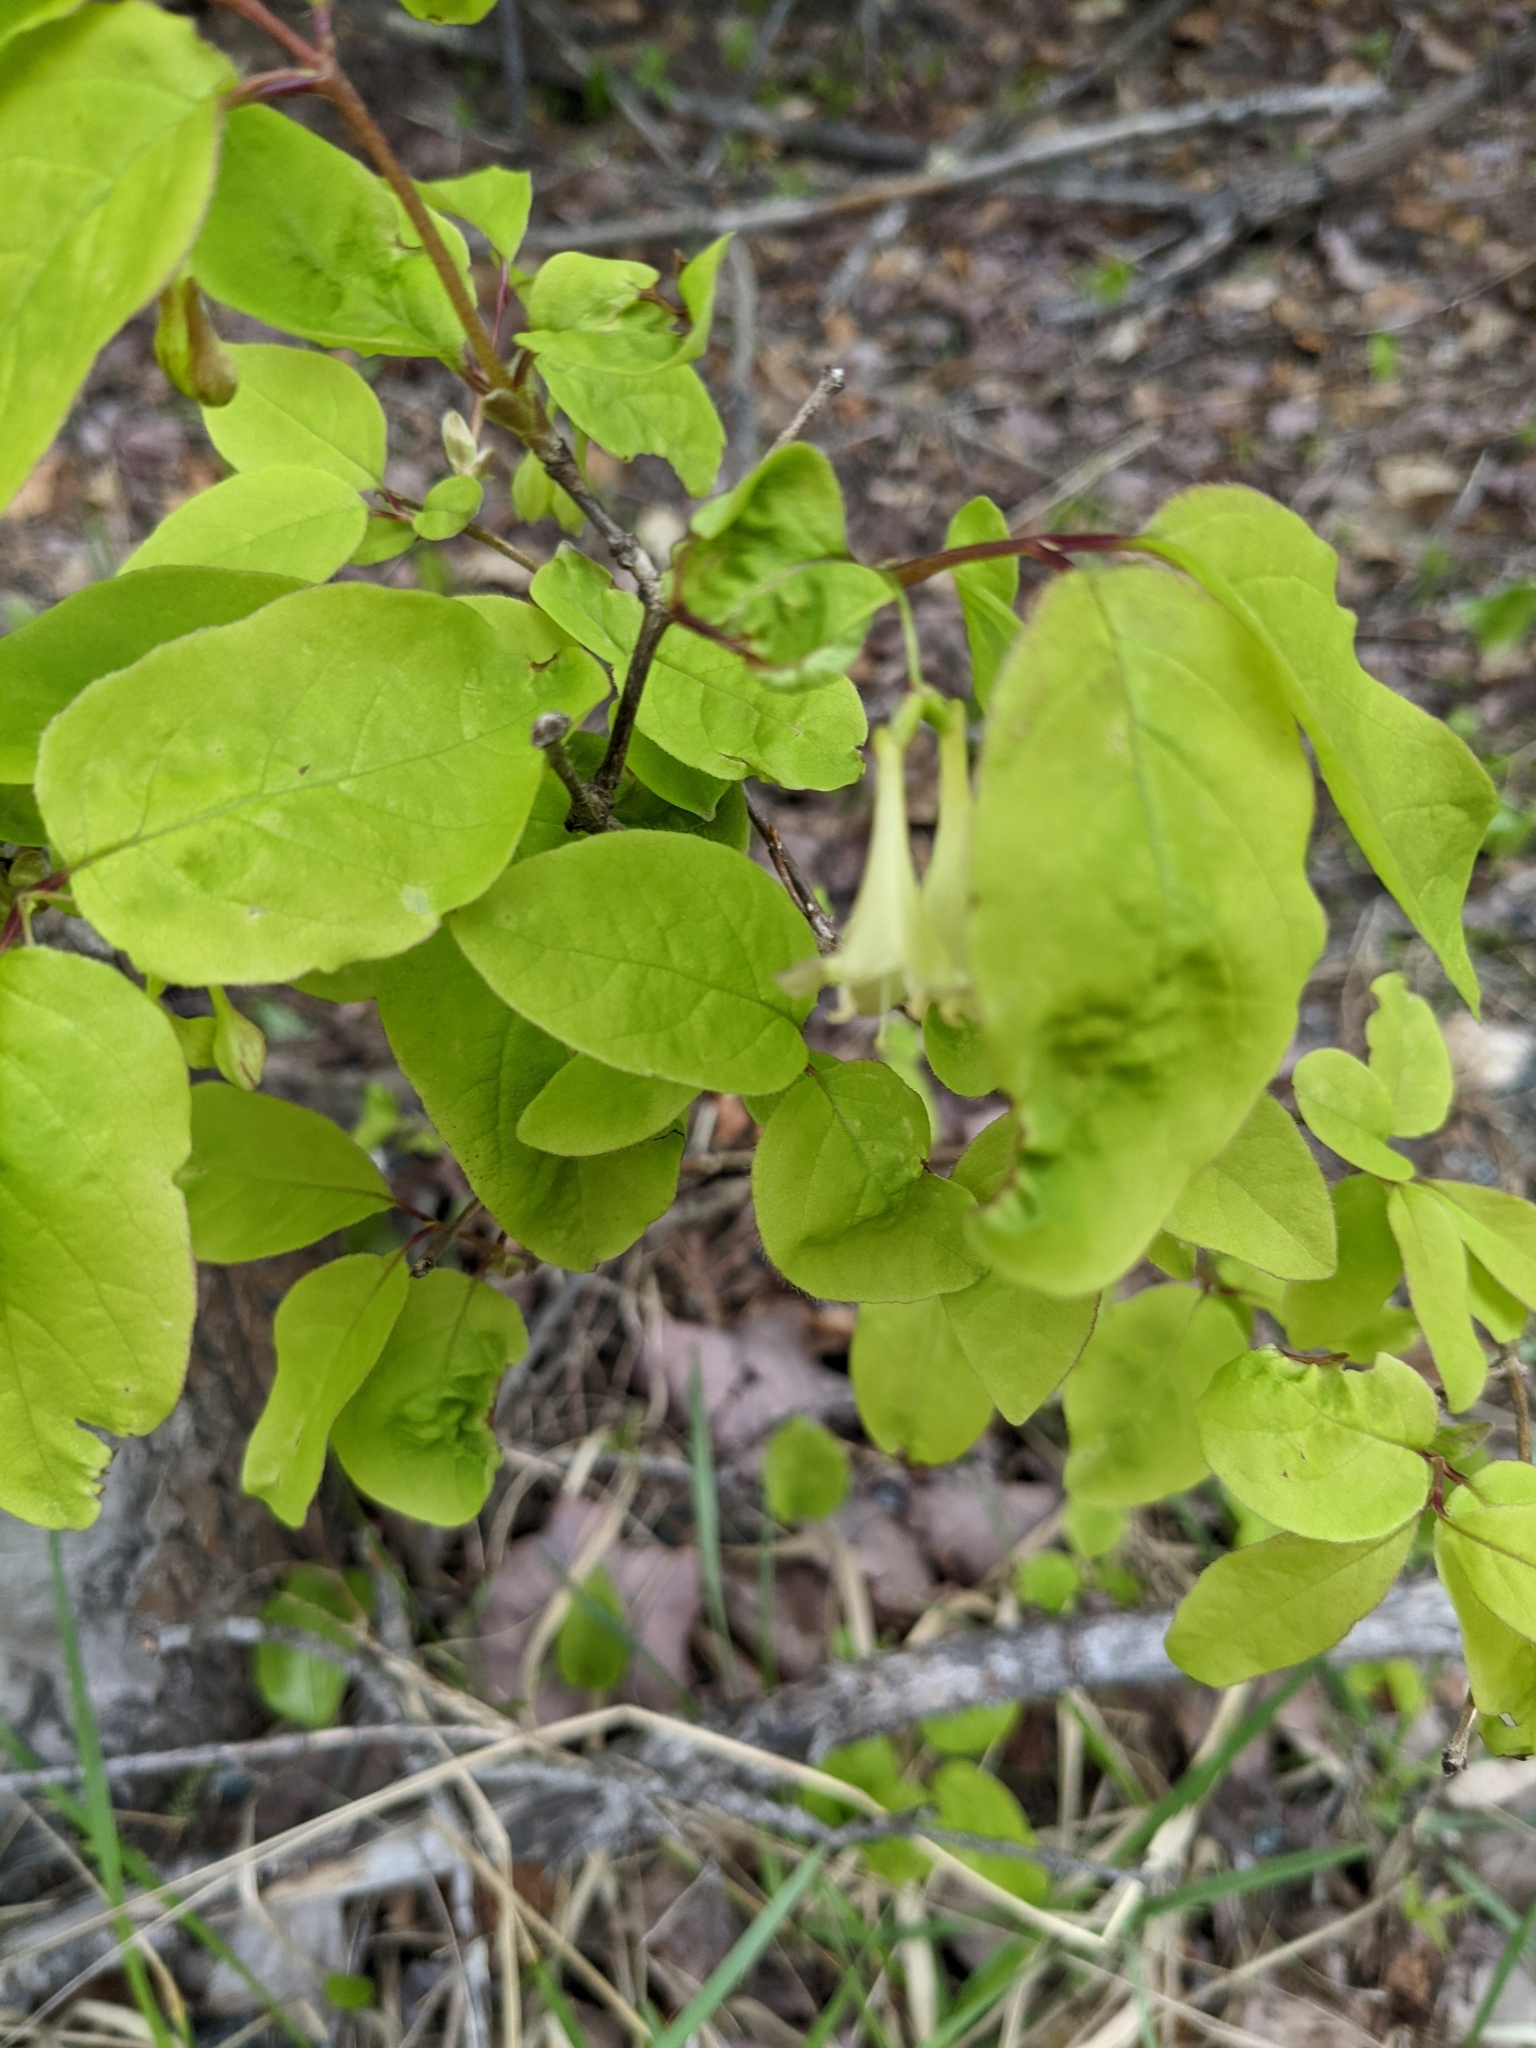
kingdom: Plantae
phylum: Tracheophyta
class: Magnoliopsida
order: Dipsacales
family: Caprifoliaceae
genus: Lonicera
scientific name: Lonicera canadensis
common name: American fly-honeysuckle
